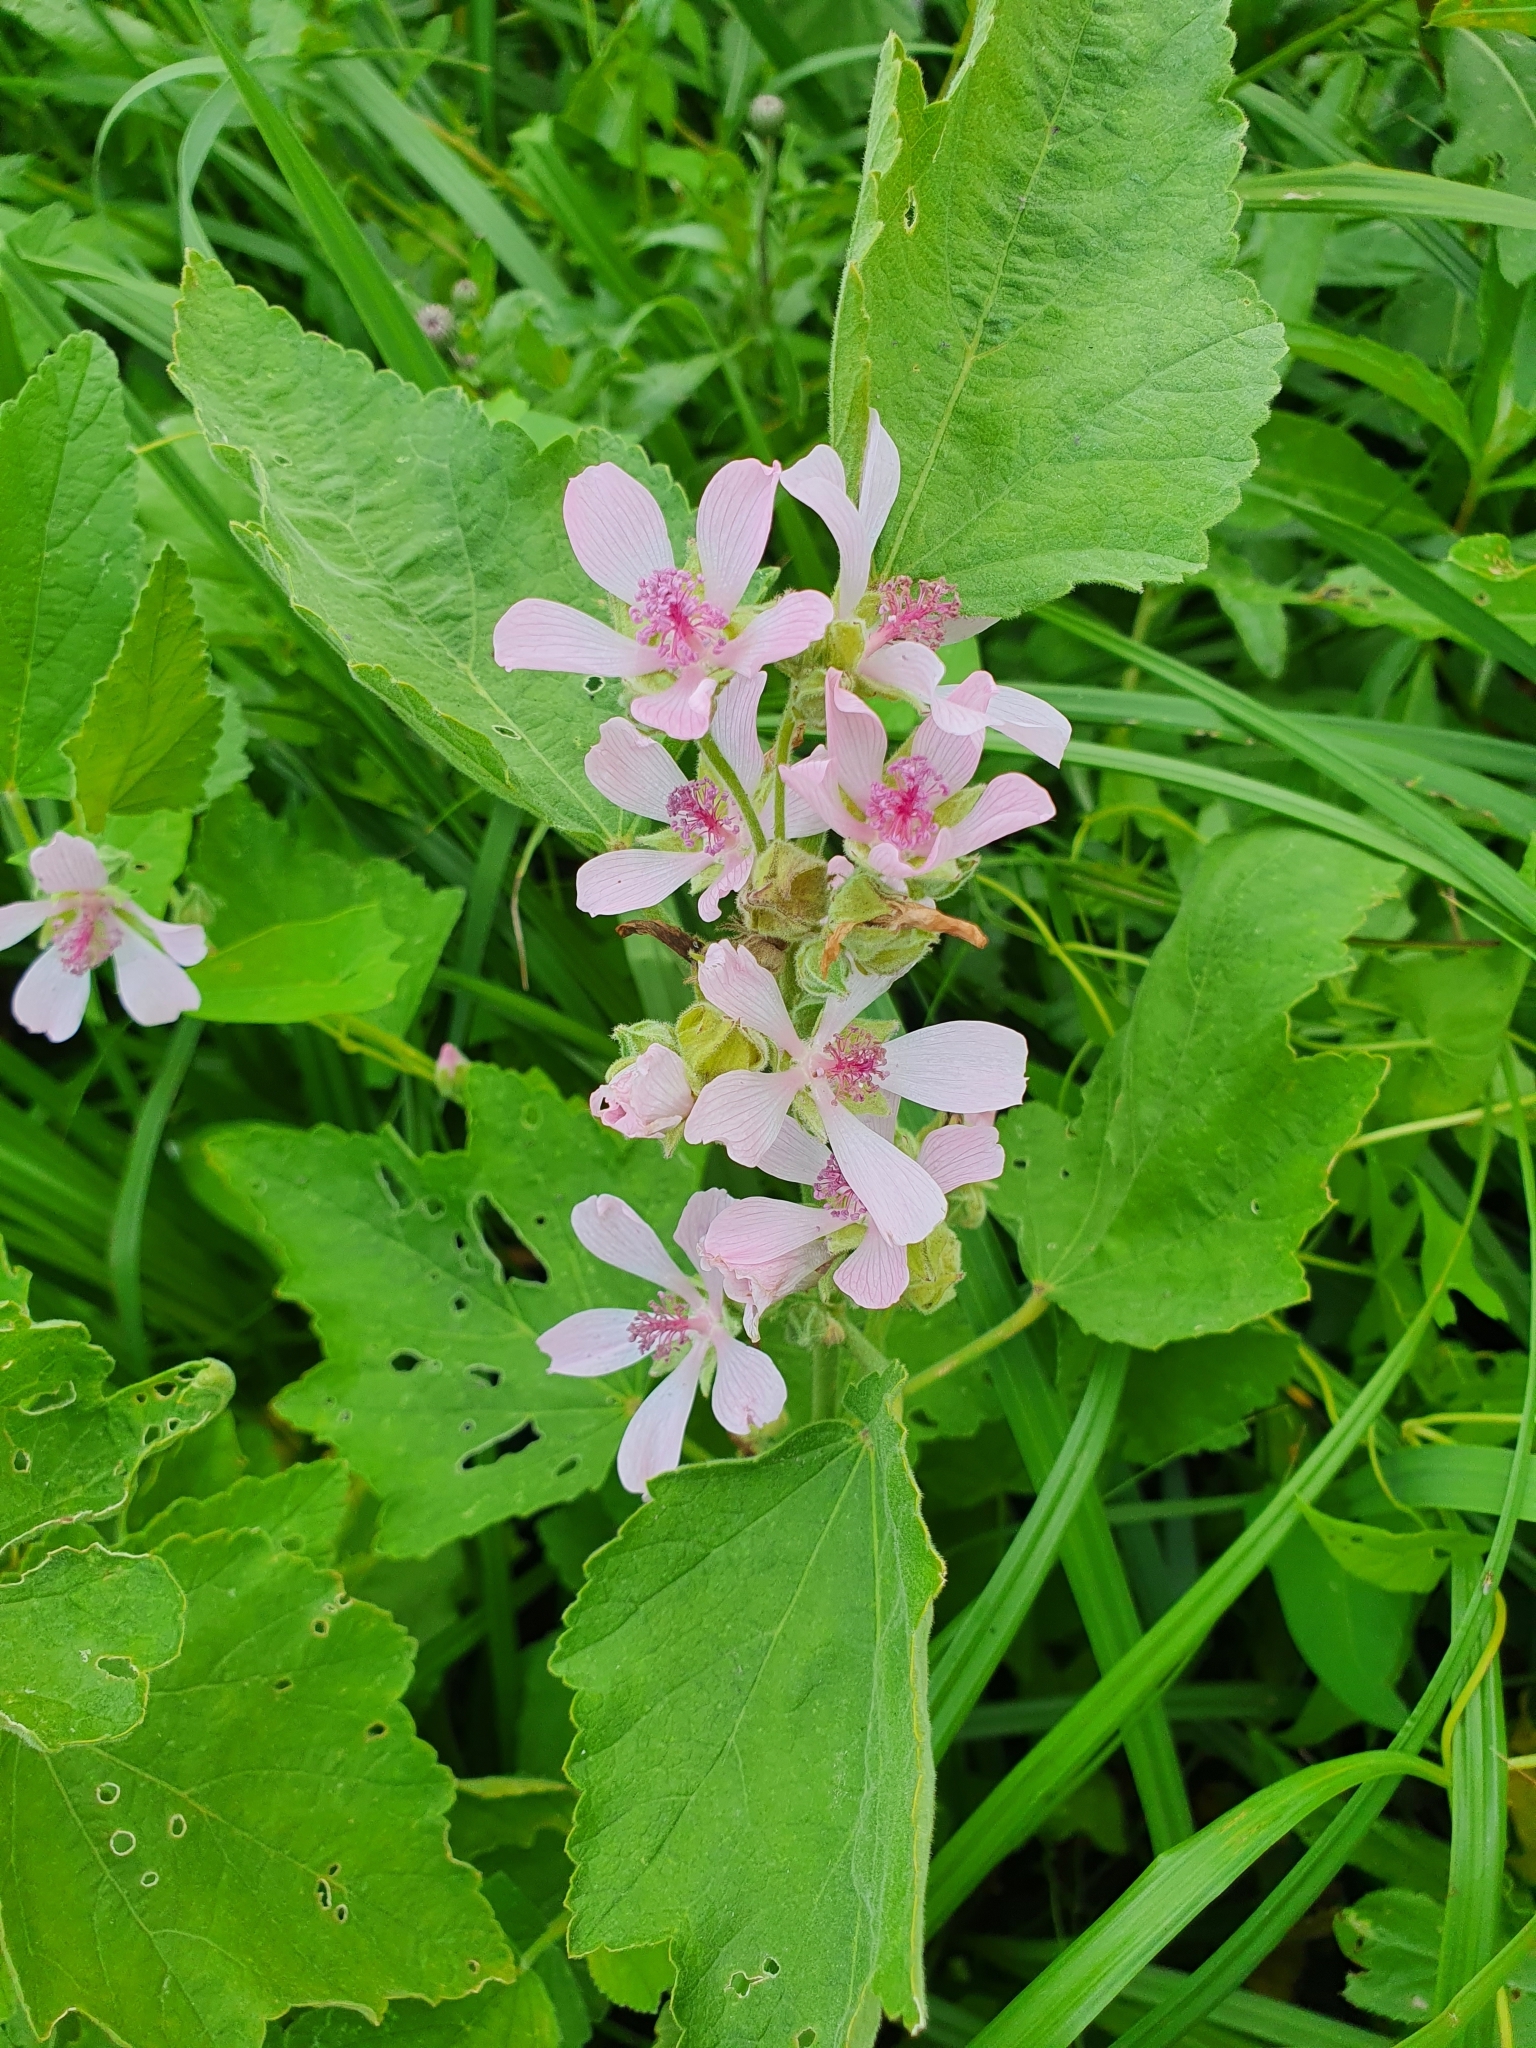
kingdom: Plantae
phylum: Tracheophyta
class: Magnoliopsida
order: Malvales
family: Malvaceae
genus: Althaea
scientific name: Althaea officinalis
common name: Marsh-mallow
